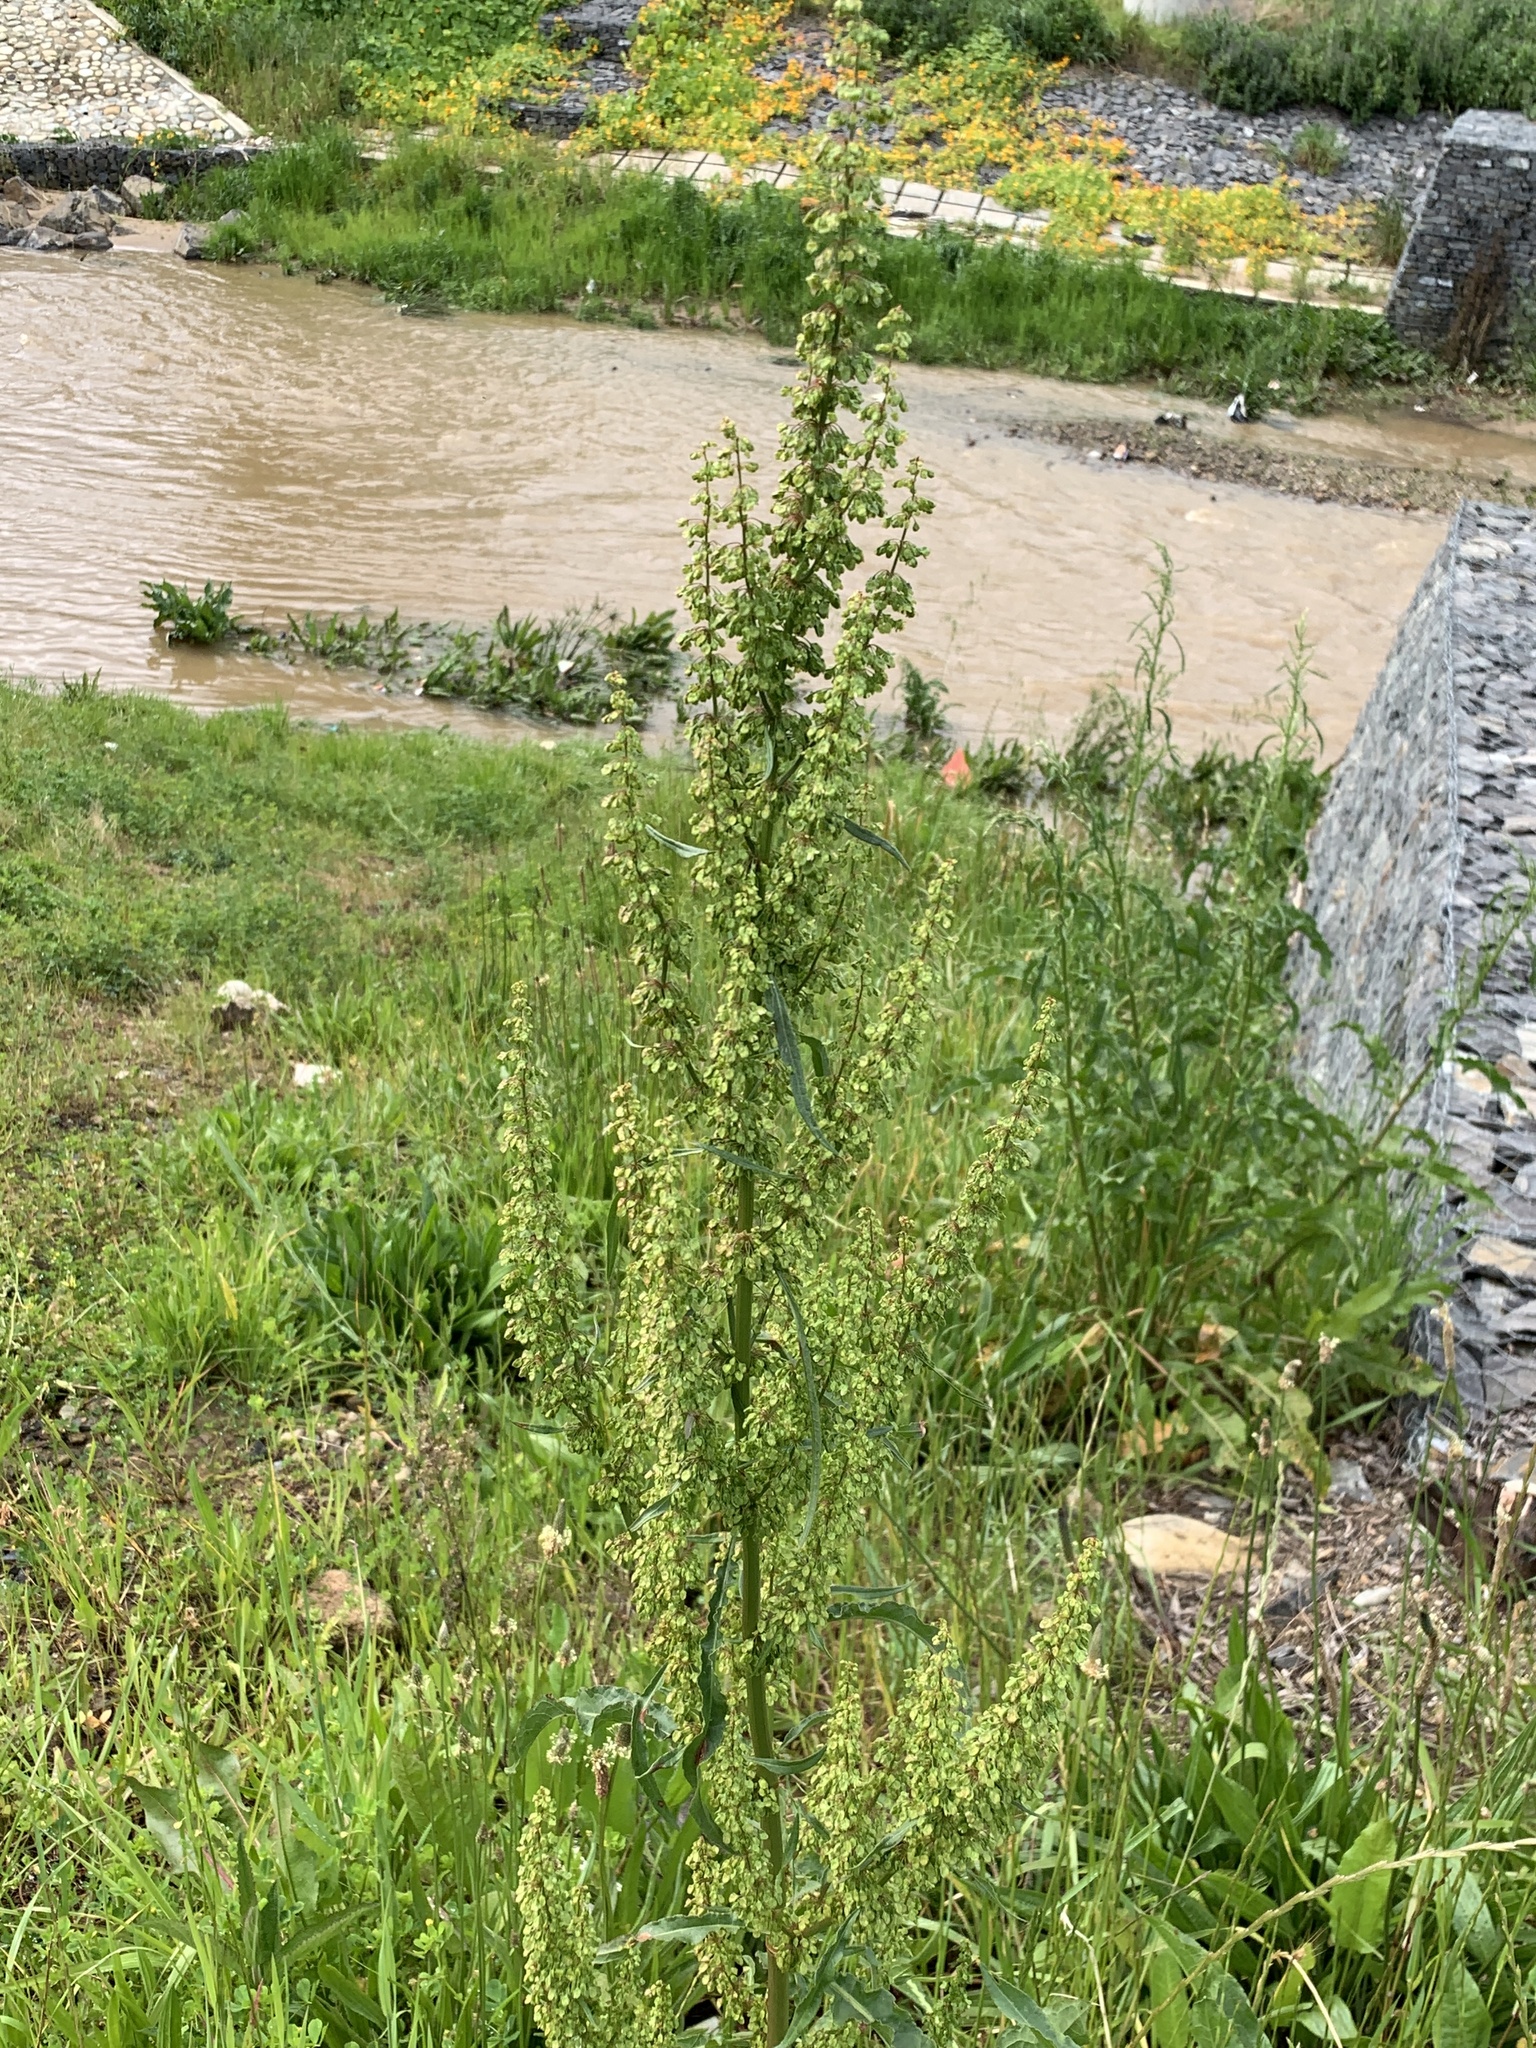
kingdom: Plantae
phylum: Tracheophyta
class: Magnoliopsida
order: Caryophyllales
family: Polygonaceae
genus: Rumex
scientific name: Rumex crispus
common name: Curled dock
